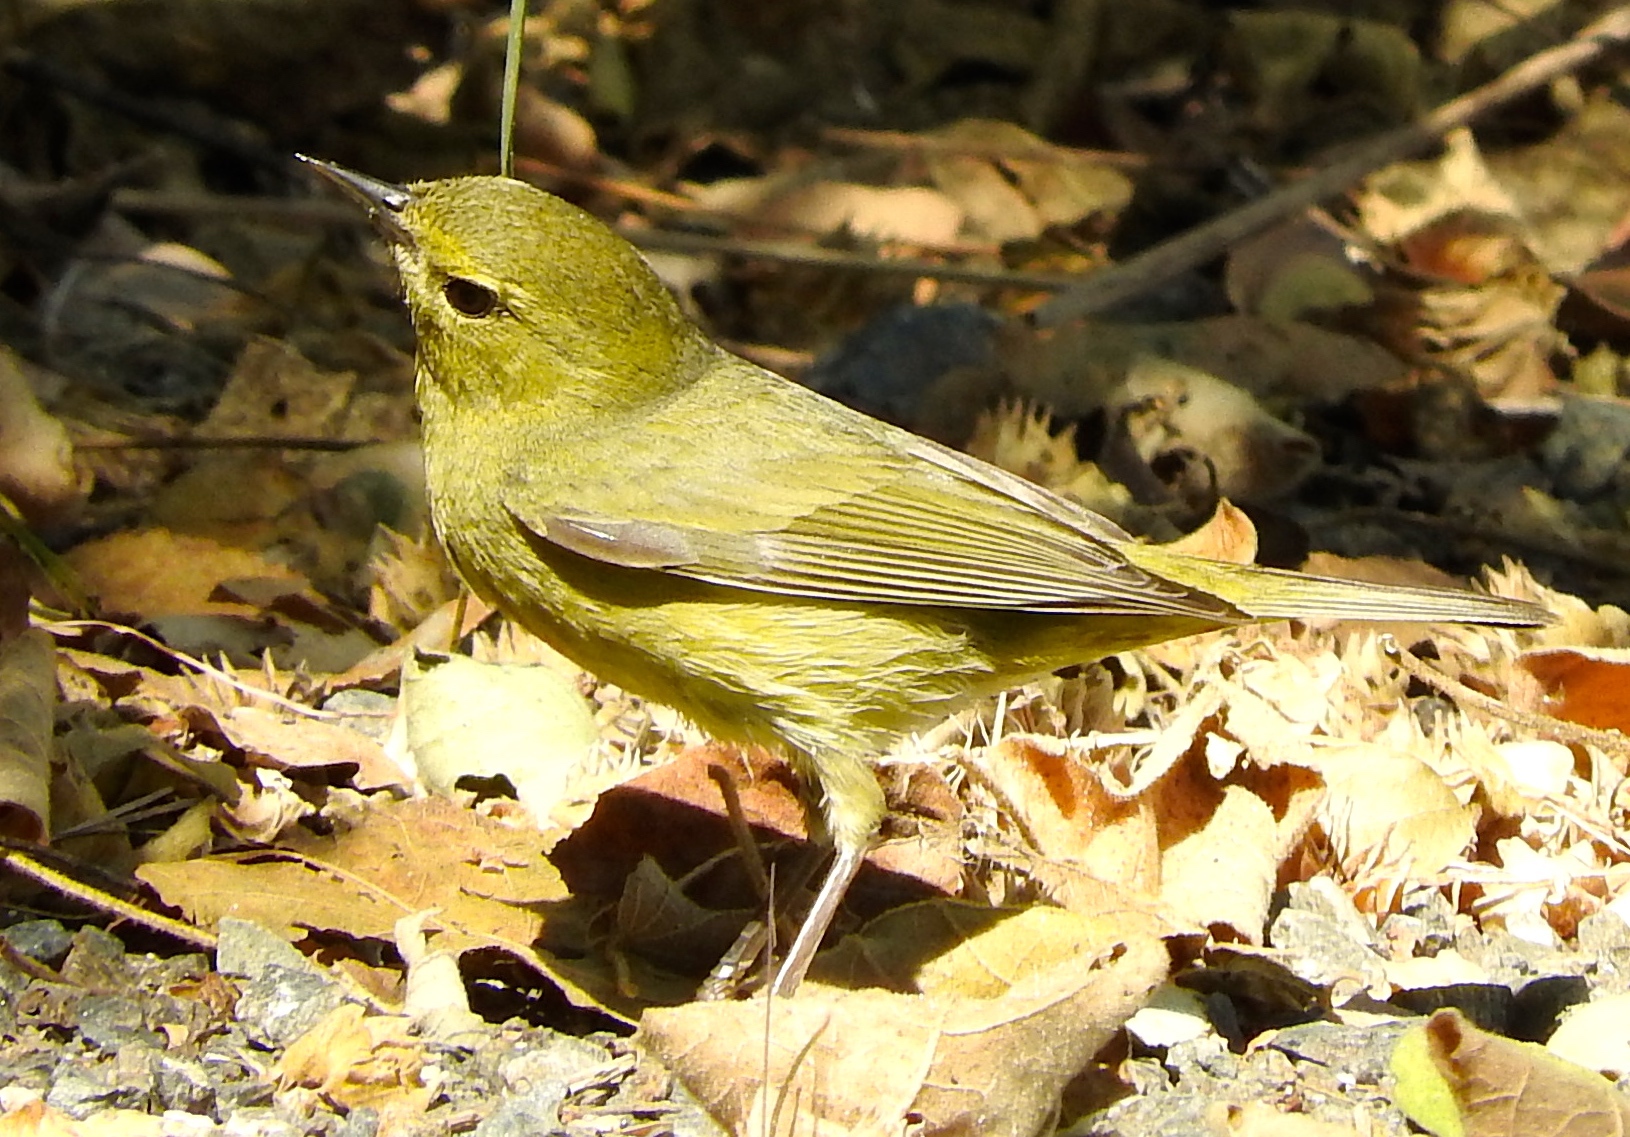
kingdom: Animalia
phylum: Chordata
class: Aves
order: Passeriformes
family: Parulidae
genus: Leiothlypis
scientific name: Leiothlypis celata
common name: Orange-crowned warbler
